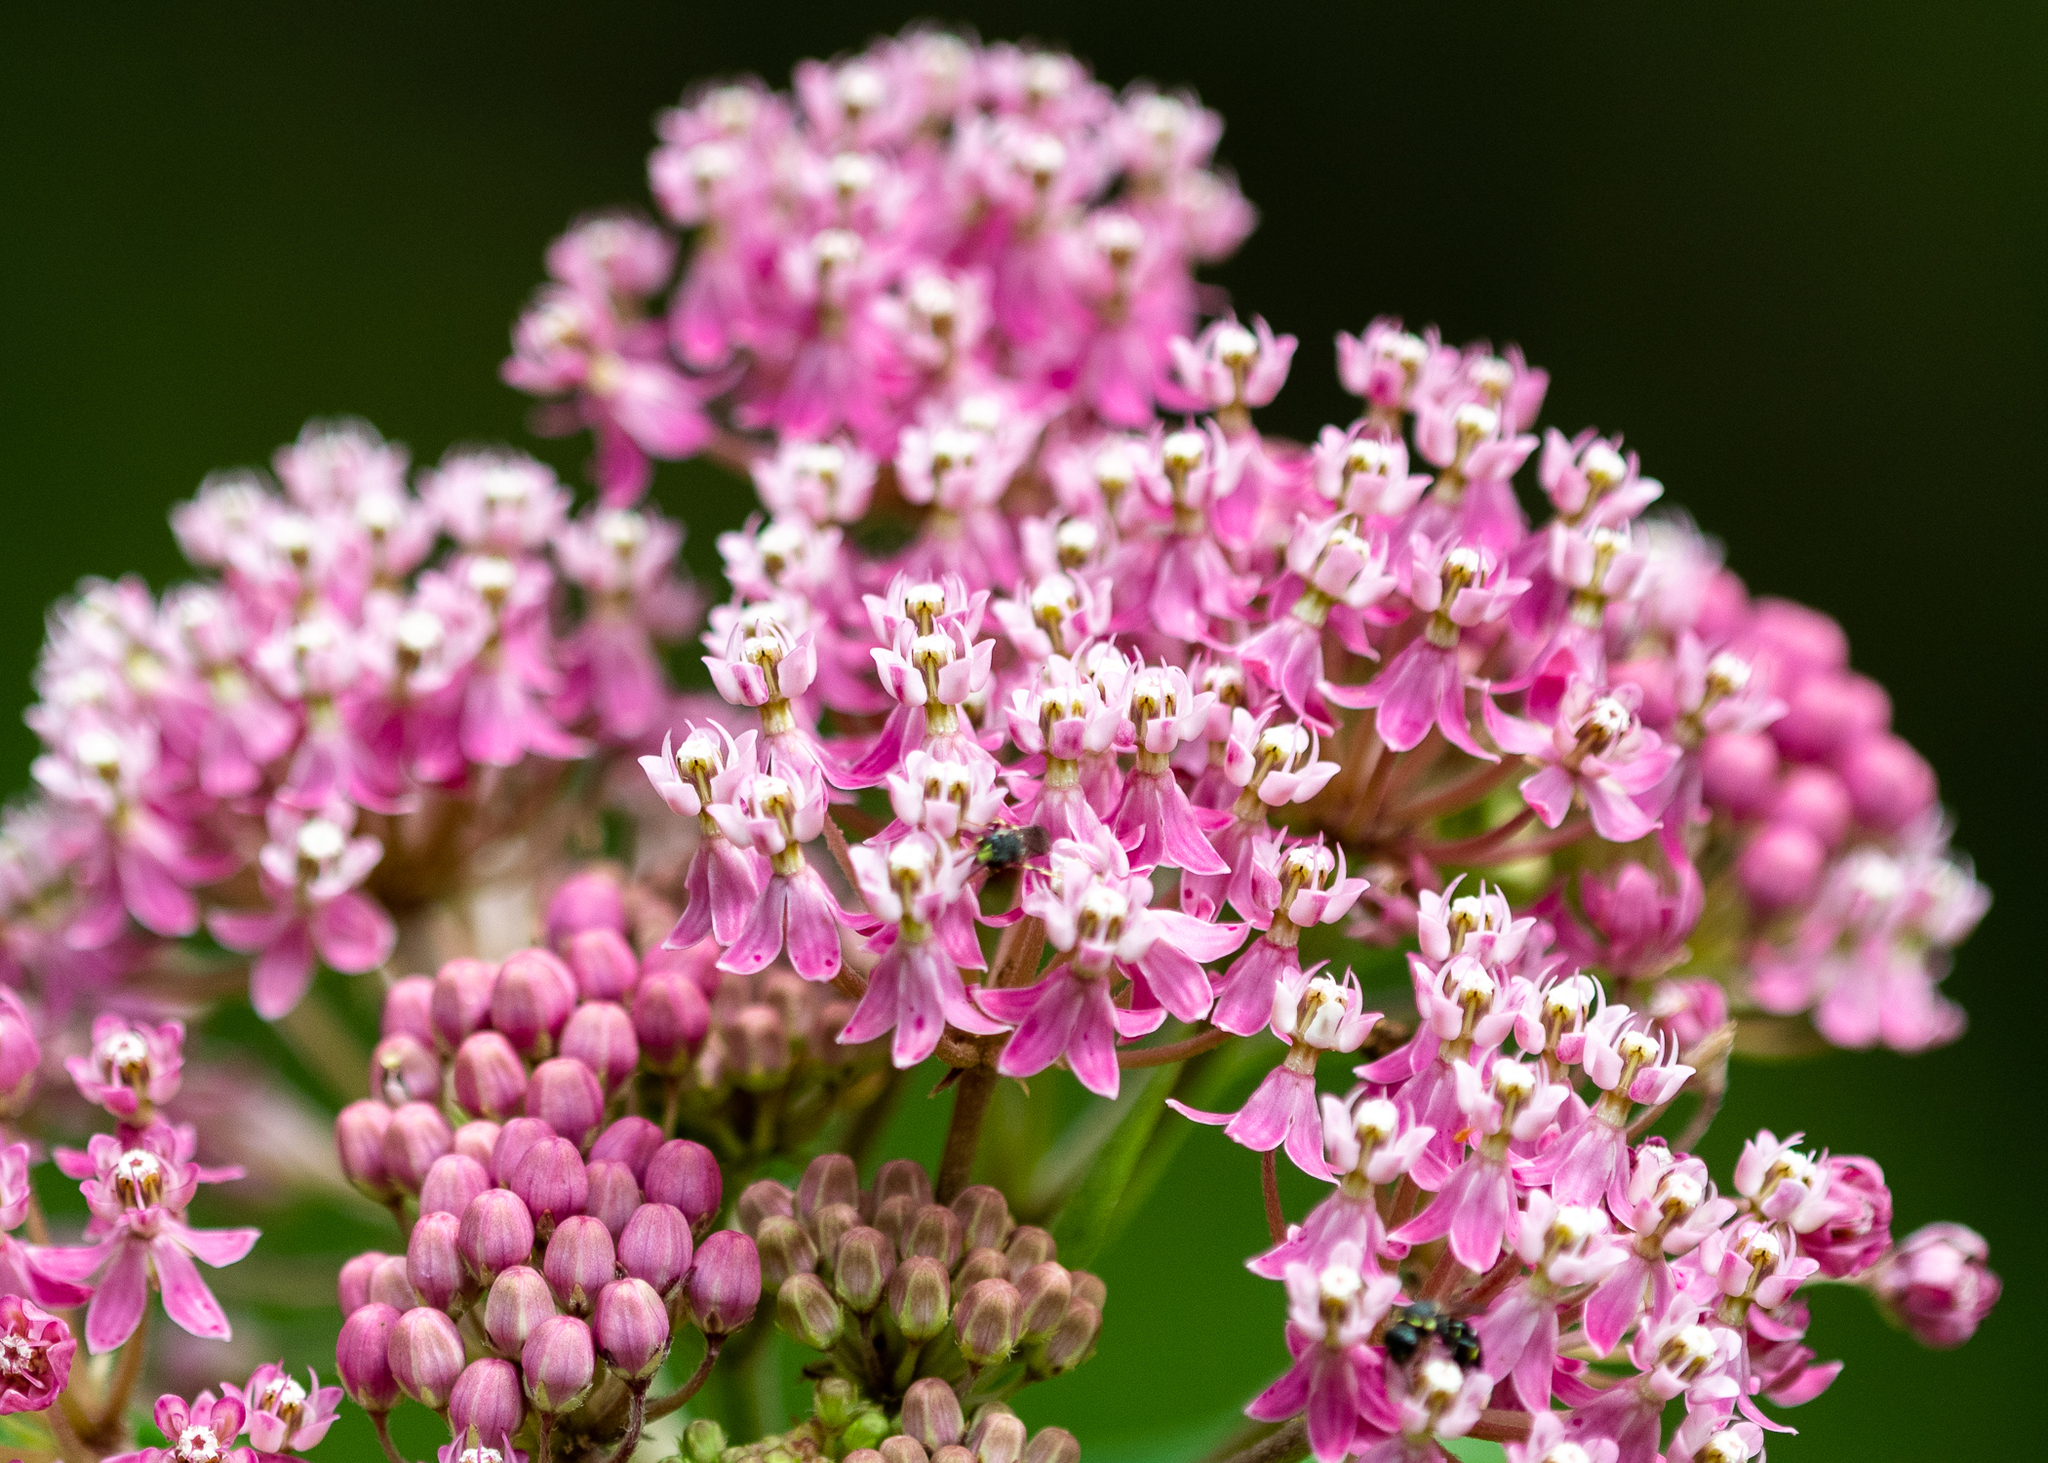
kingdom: Plantae
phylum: Tracheophyta
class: Magnoliopsida
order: Gentianales
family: Apocynaceae
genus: Asclepias
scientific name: Asclepias incarnata
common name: Swamp milkweed
